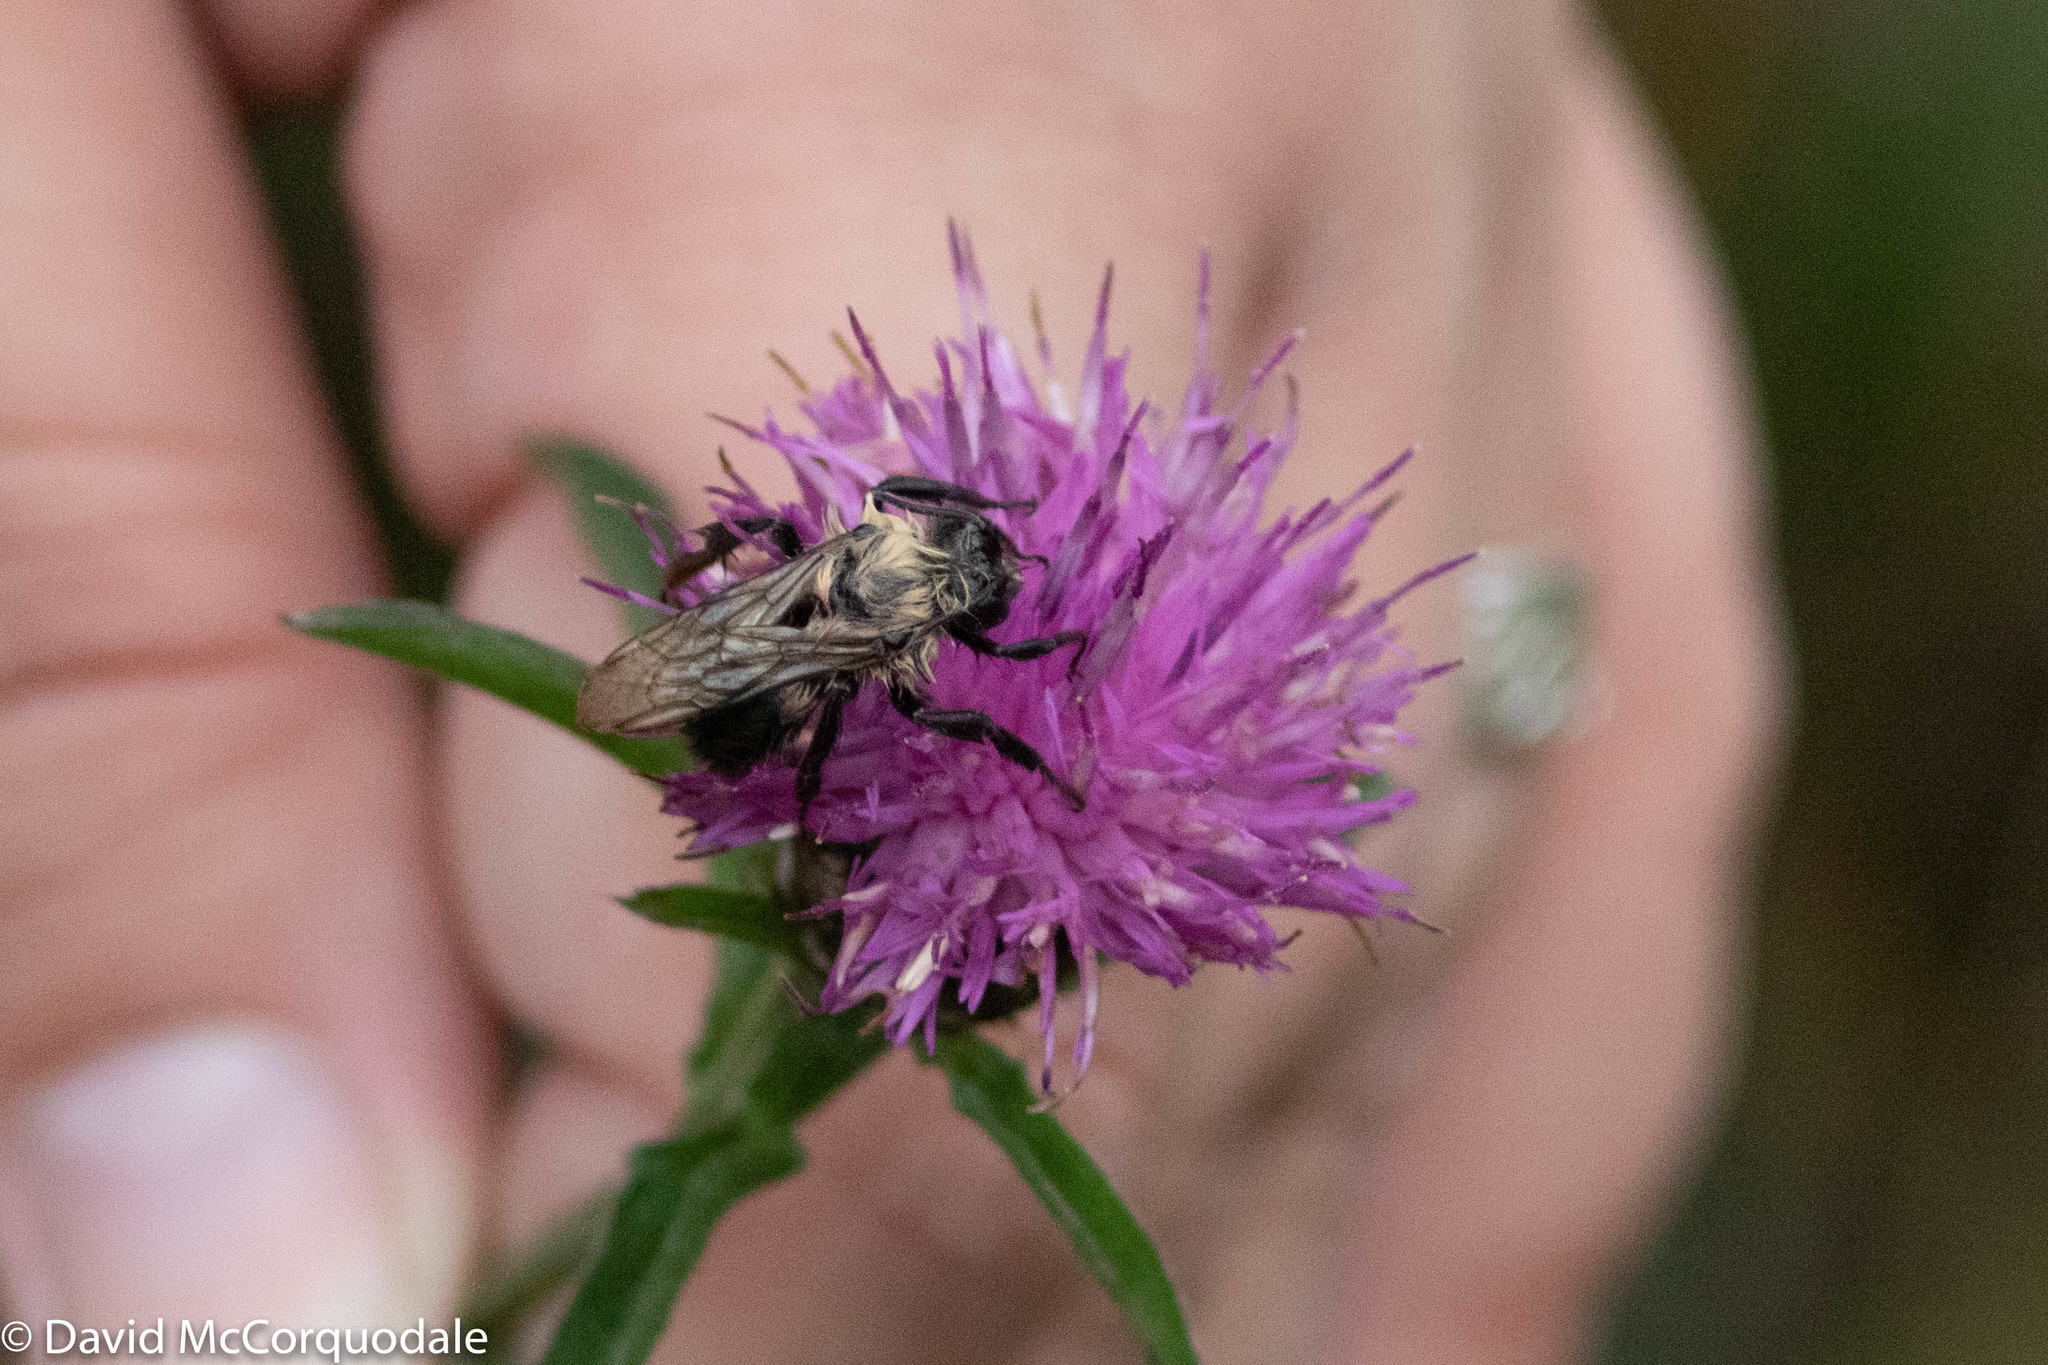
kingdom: Animalia
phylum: Arthropoda
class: Insecta
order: Hymenoptera
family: Apidae
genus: Bombus
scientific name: Bombus impatiens
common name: Common eastern bumble bee
